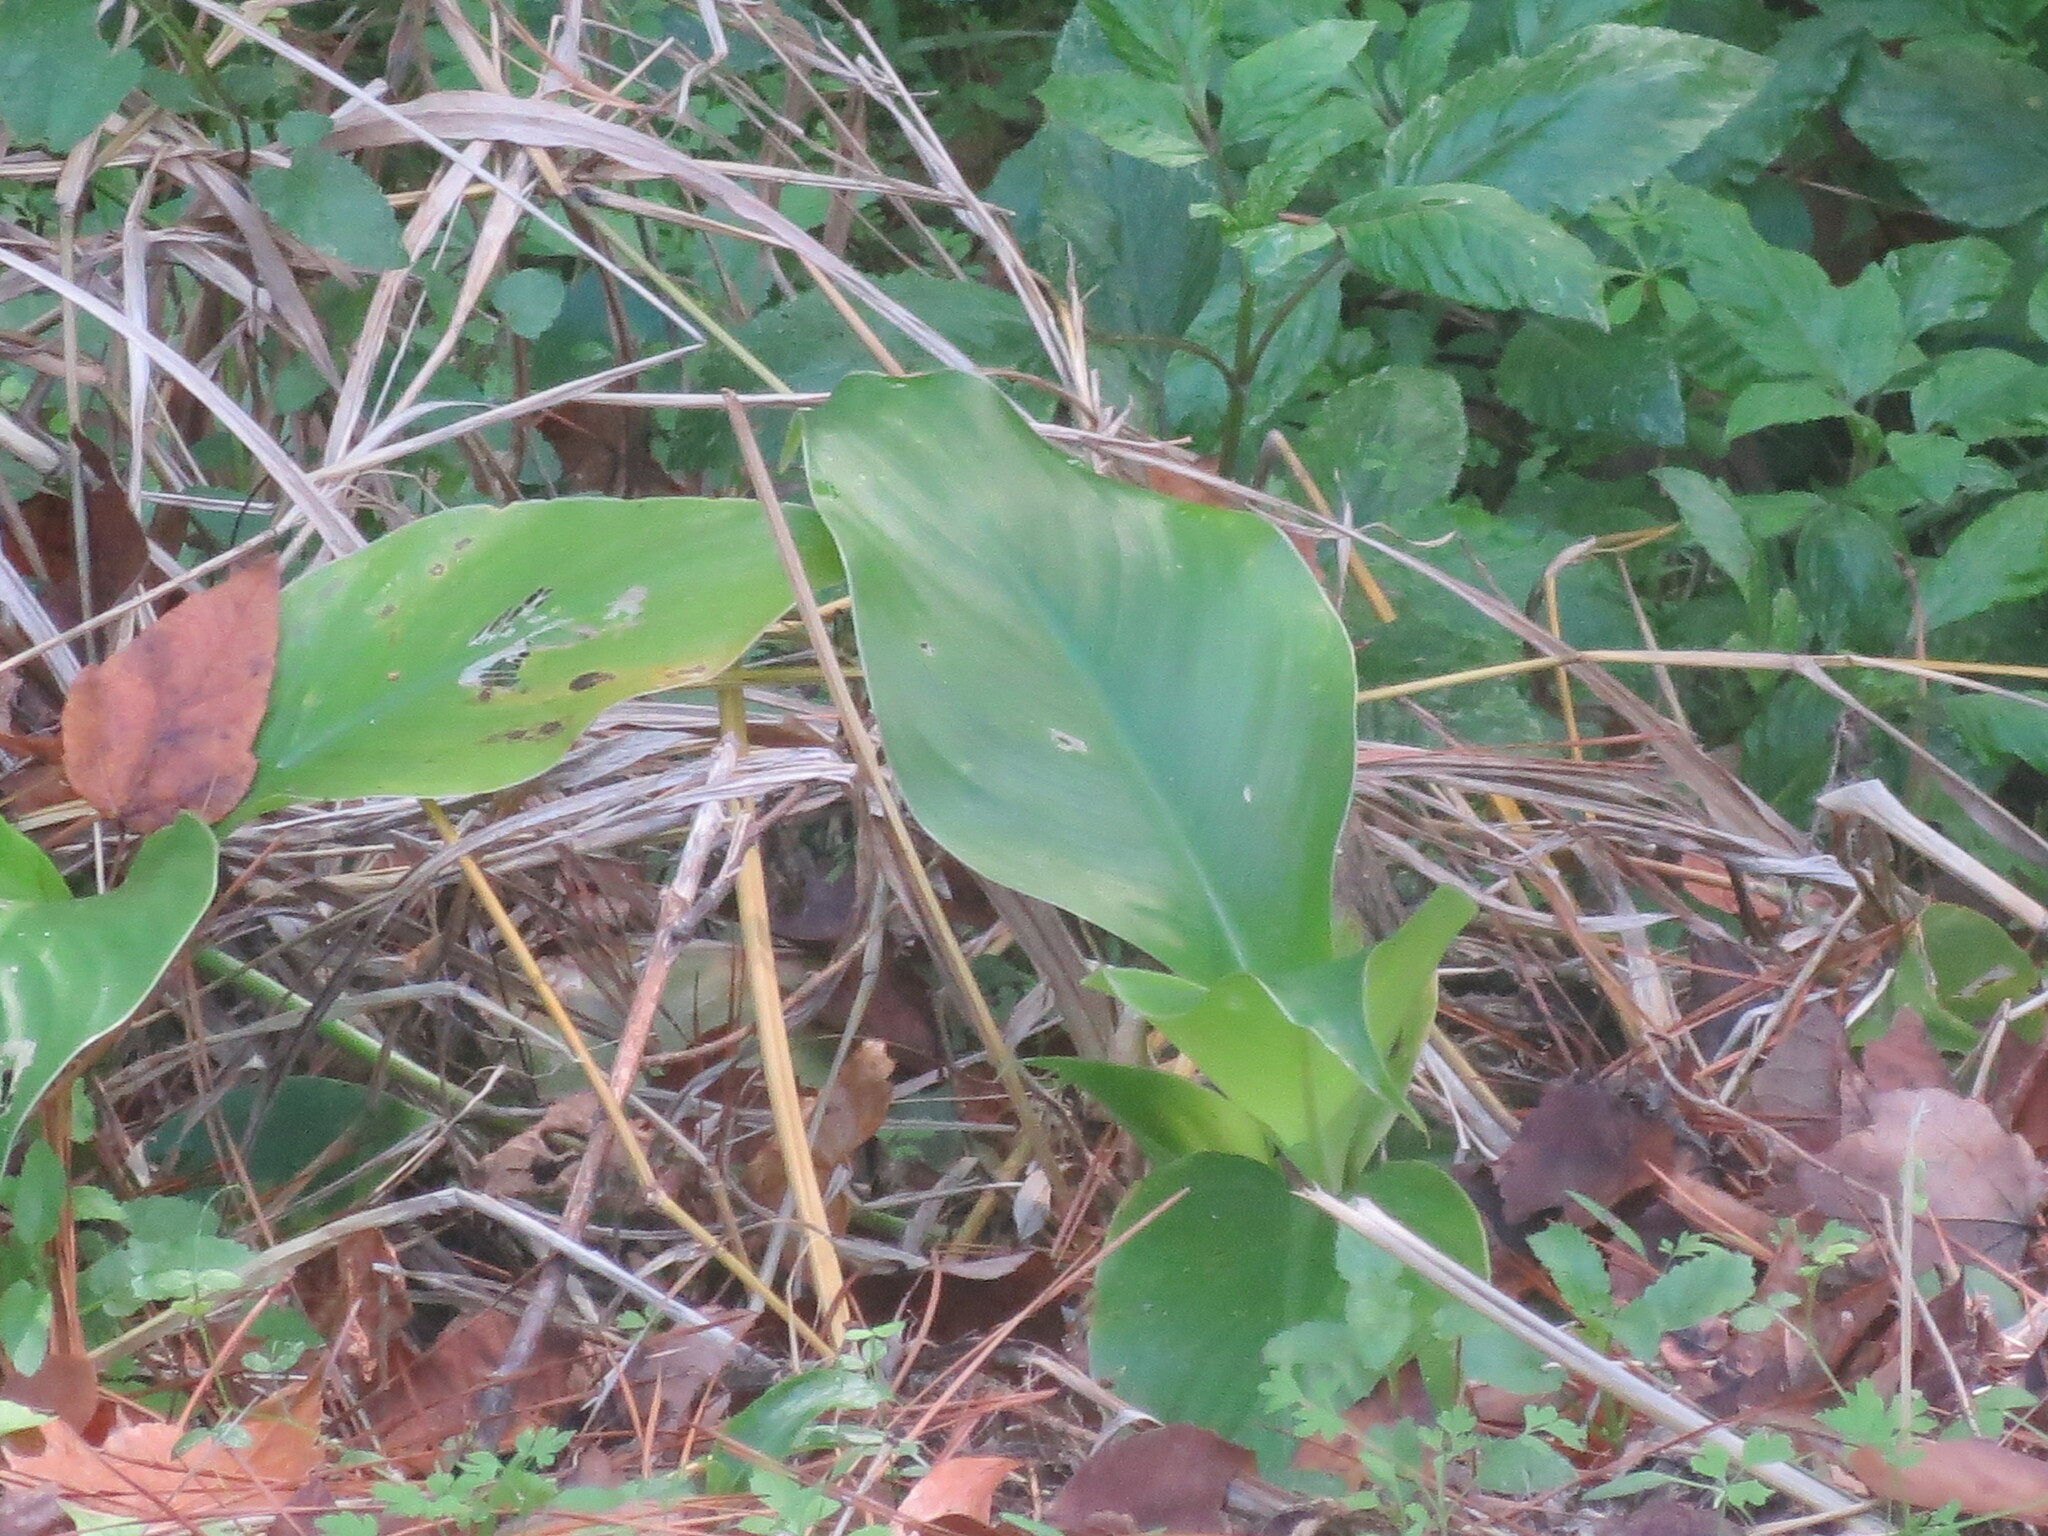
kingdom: Plantae
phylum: Tracheophyta
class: Liliopsida
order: Zingiberales
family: Cannaceae
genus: Canna
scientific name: Canna indica
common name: Indian shot
